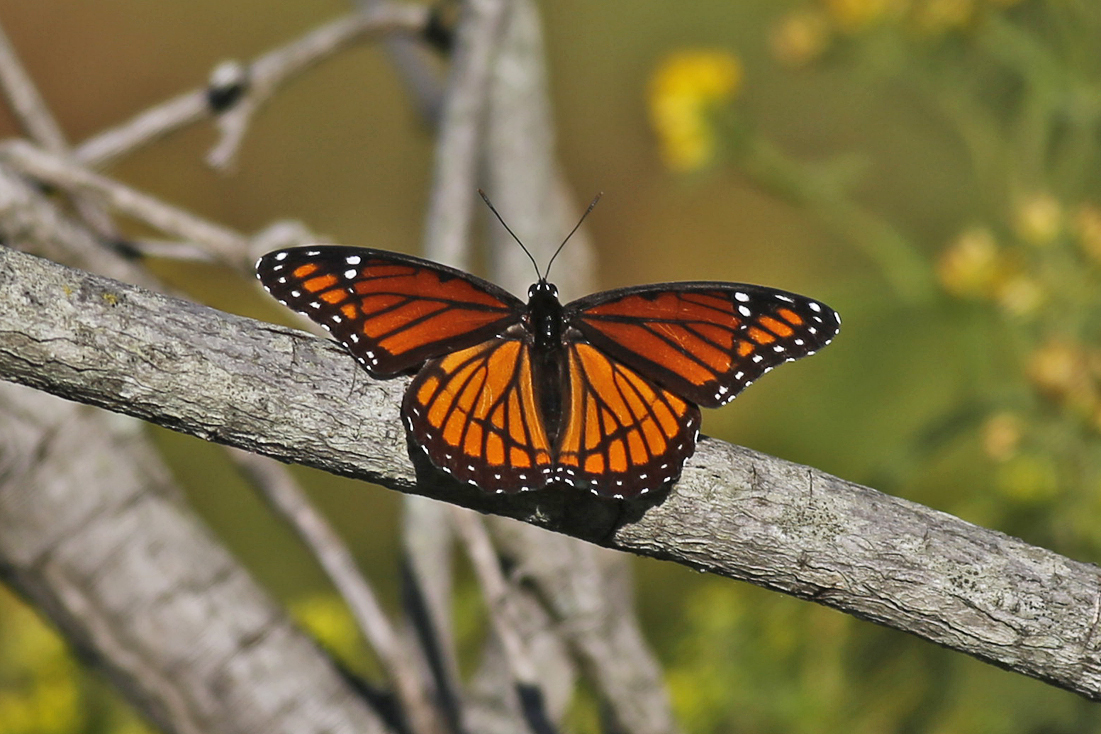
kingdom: Animalia
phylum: Arthropoda
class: Insecta
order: Lepidoptera
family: Nymphalidae
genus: Limenitis
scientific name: Limenitis archippus
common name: Viceroy
